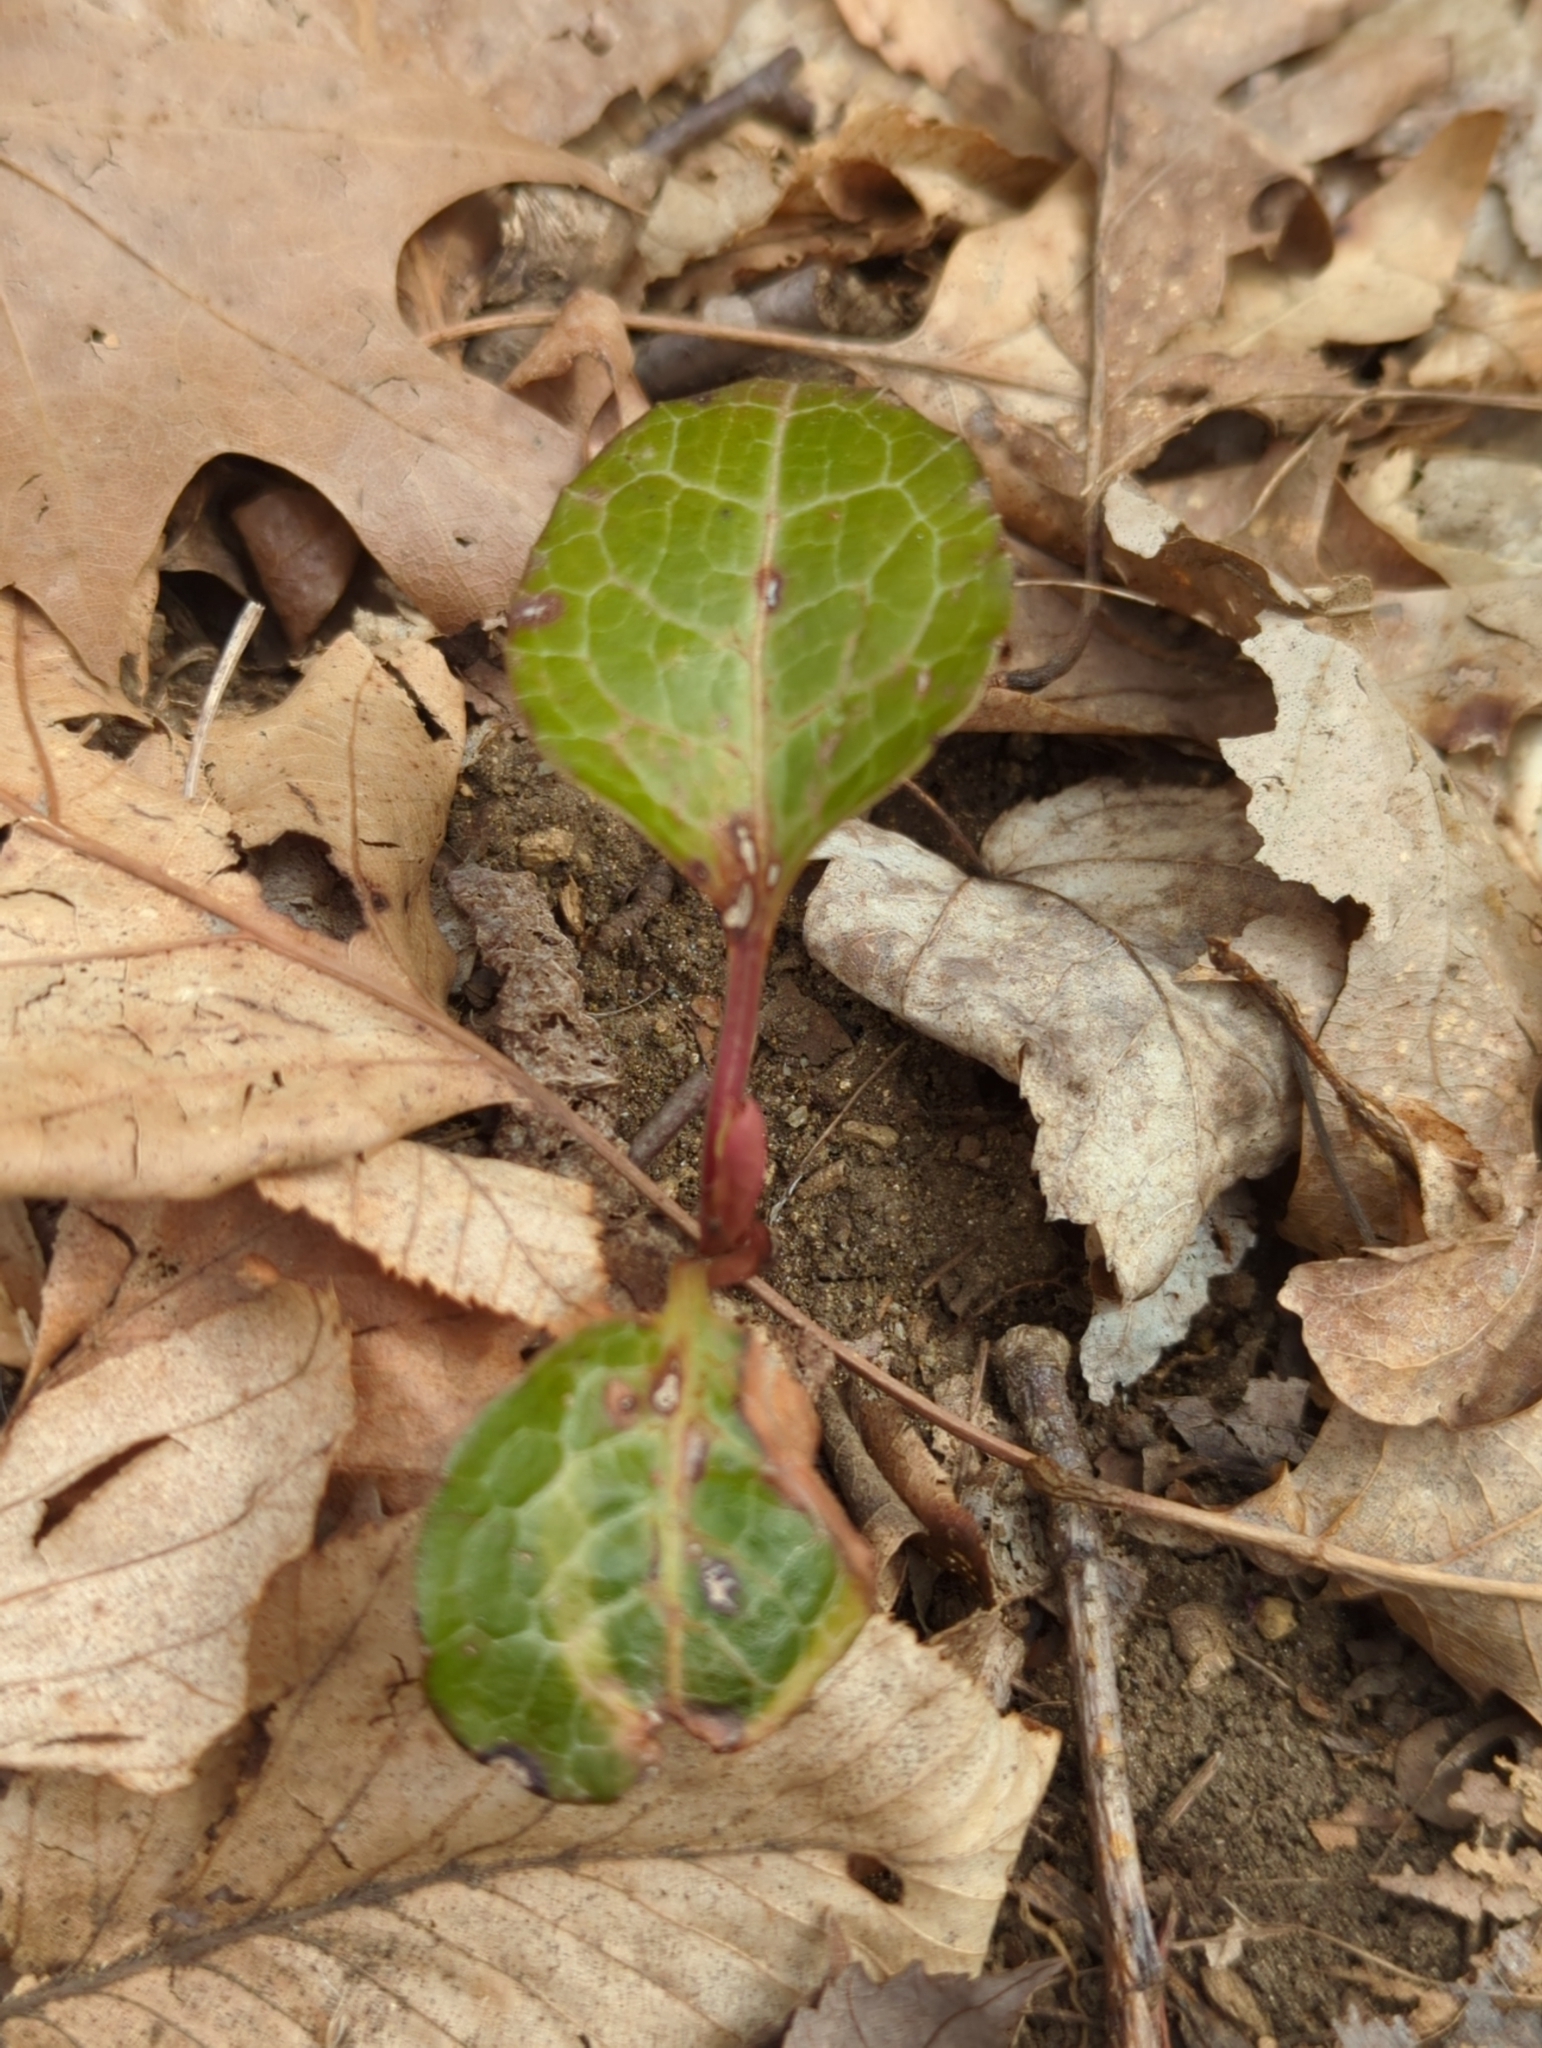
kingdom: Plantae
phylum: Tracheophyta
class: Magnoliopsida
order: Ericales
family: Ericaceae
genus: Pyrola
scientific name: Pyrola americana
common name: American wintergreen
